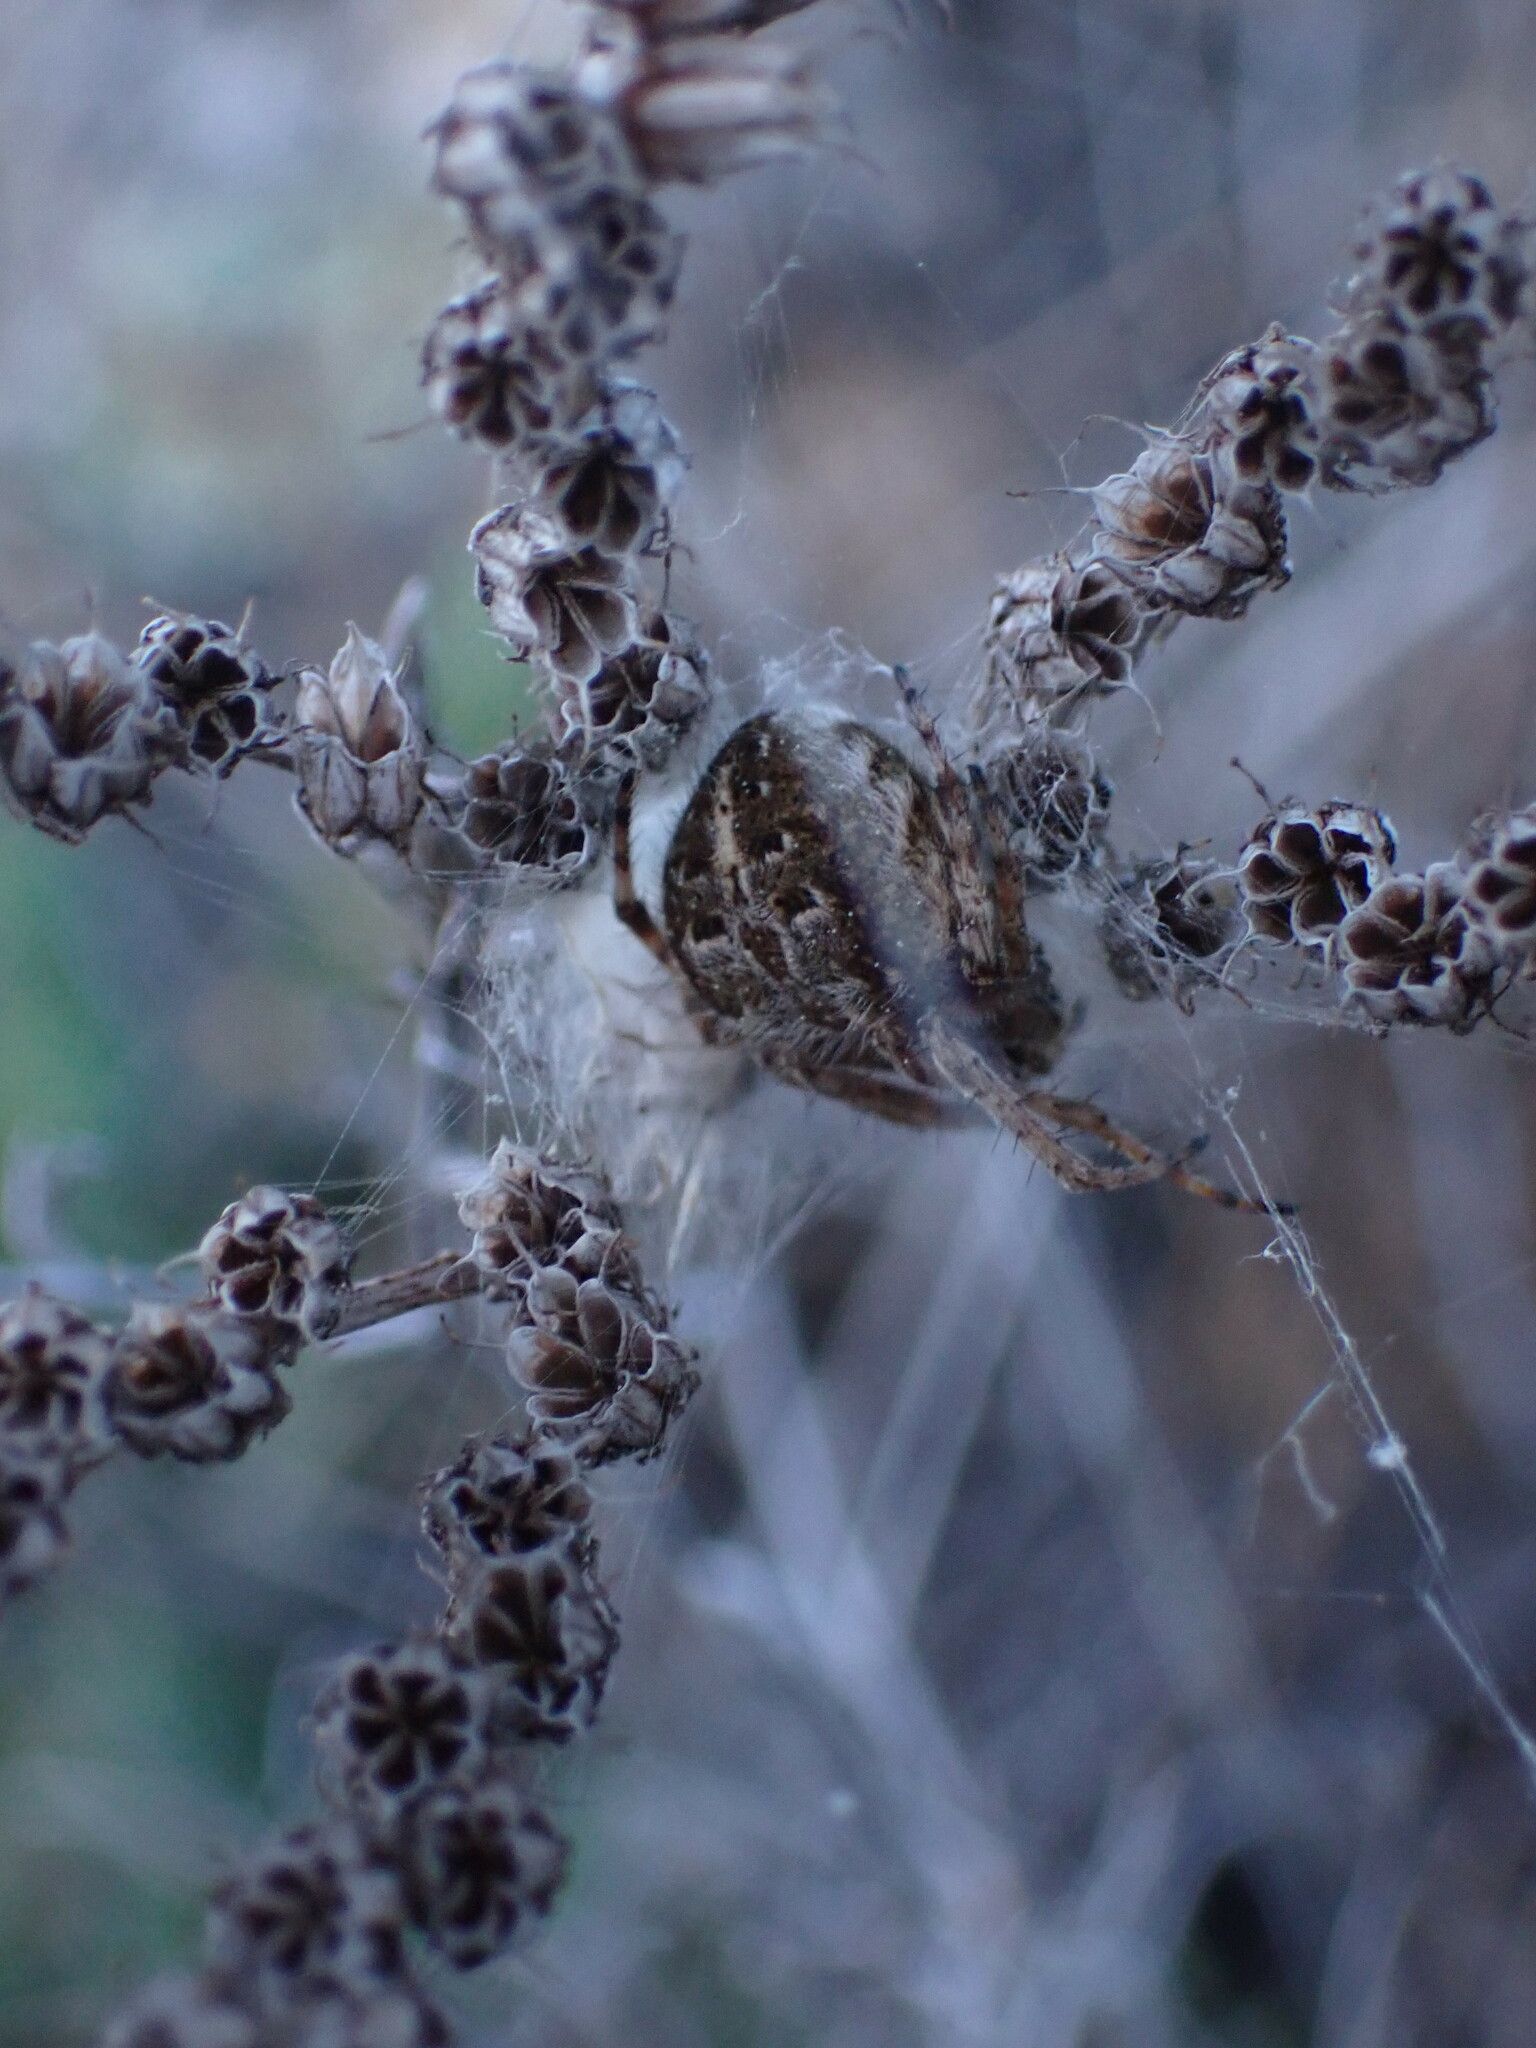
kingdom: Animalia
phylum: Arthropoda
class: Arachnida
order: Araneae
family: Araneidae
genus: Agalenatea
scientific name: Agalenatea redii
